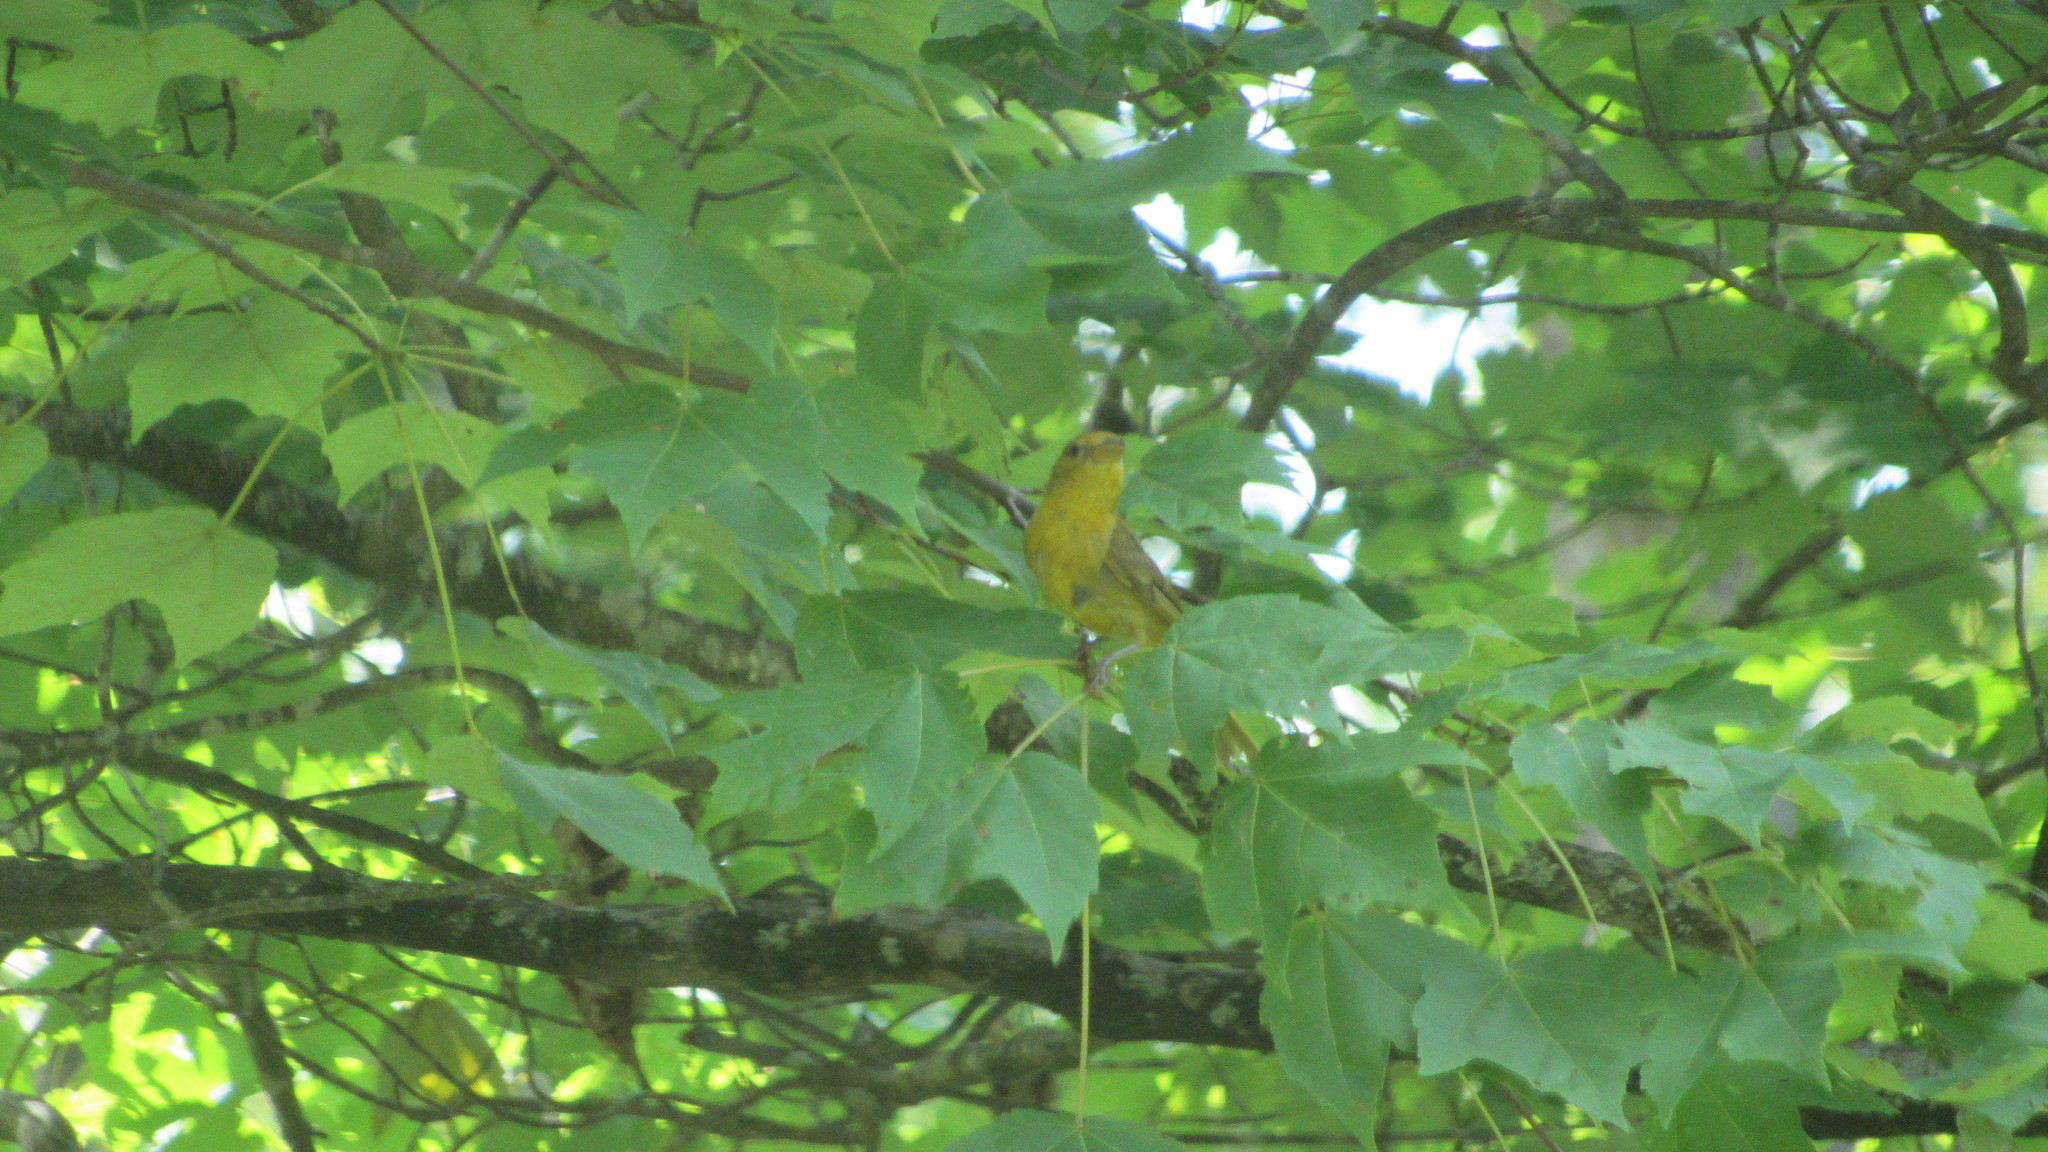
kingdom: Animalia
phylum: Chordata
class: Aves
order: Passeriformes
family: Cardinalidae
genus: Piranga
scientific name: Piranga rubra
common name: Summer tanager
